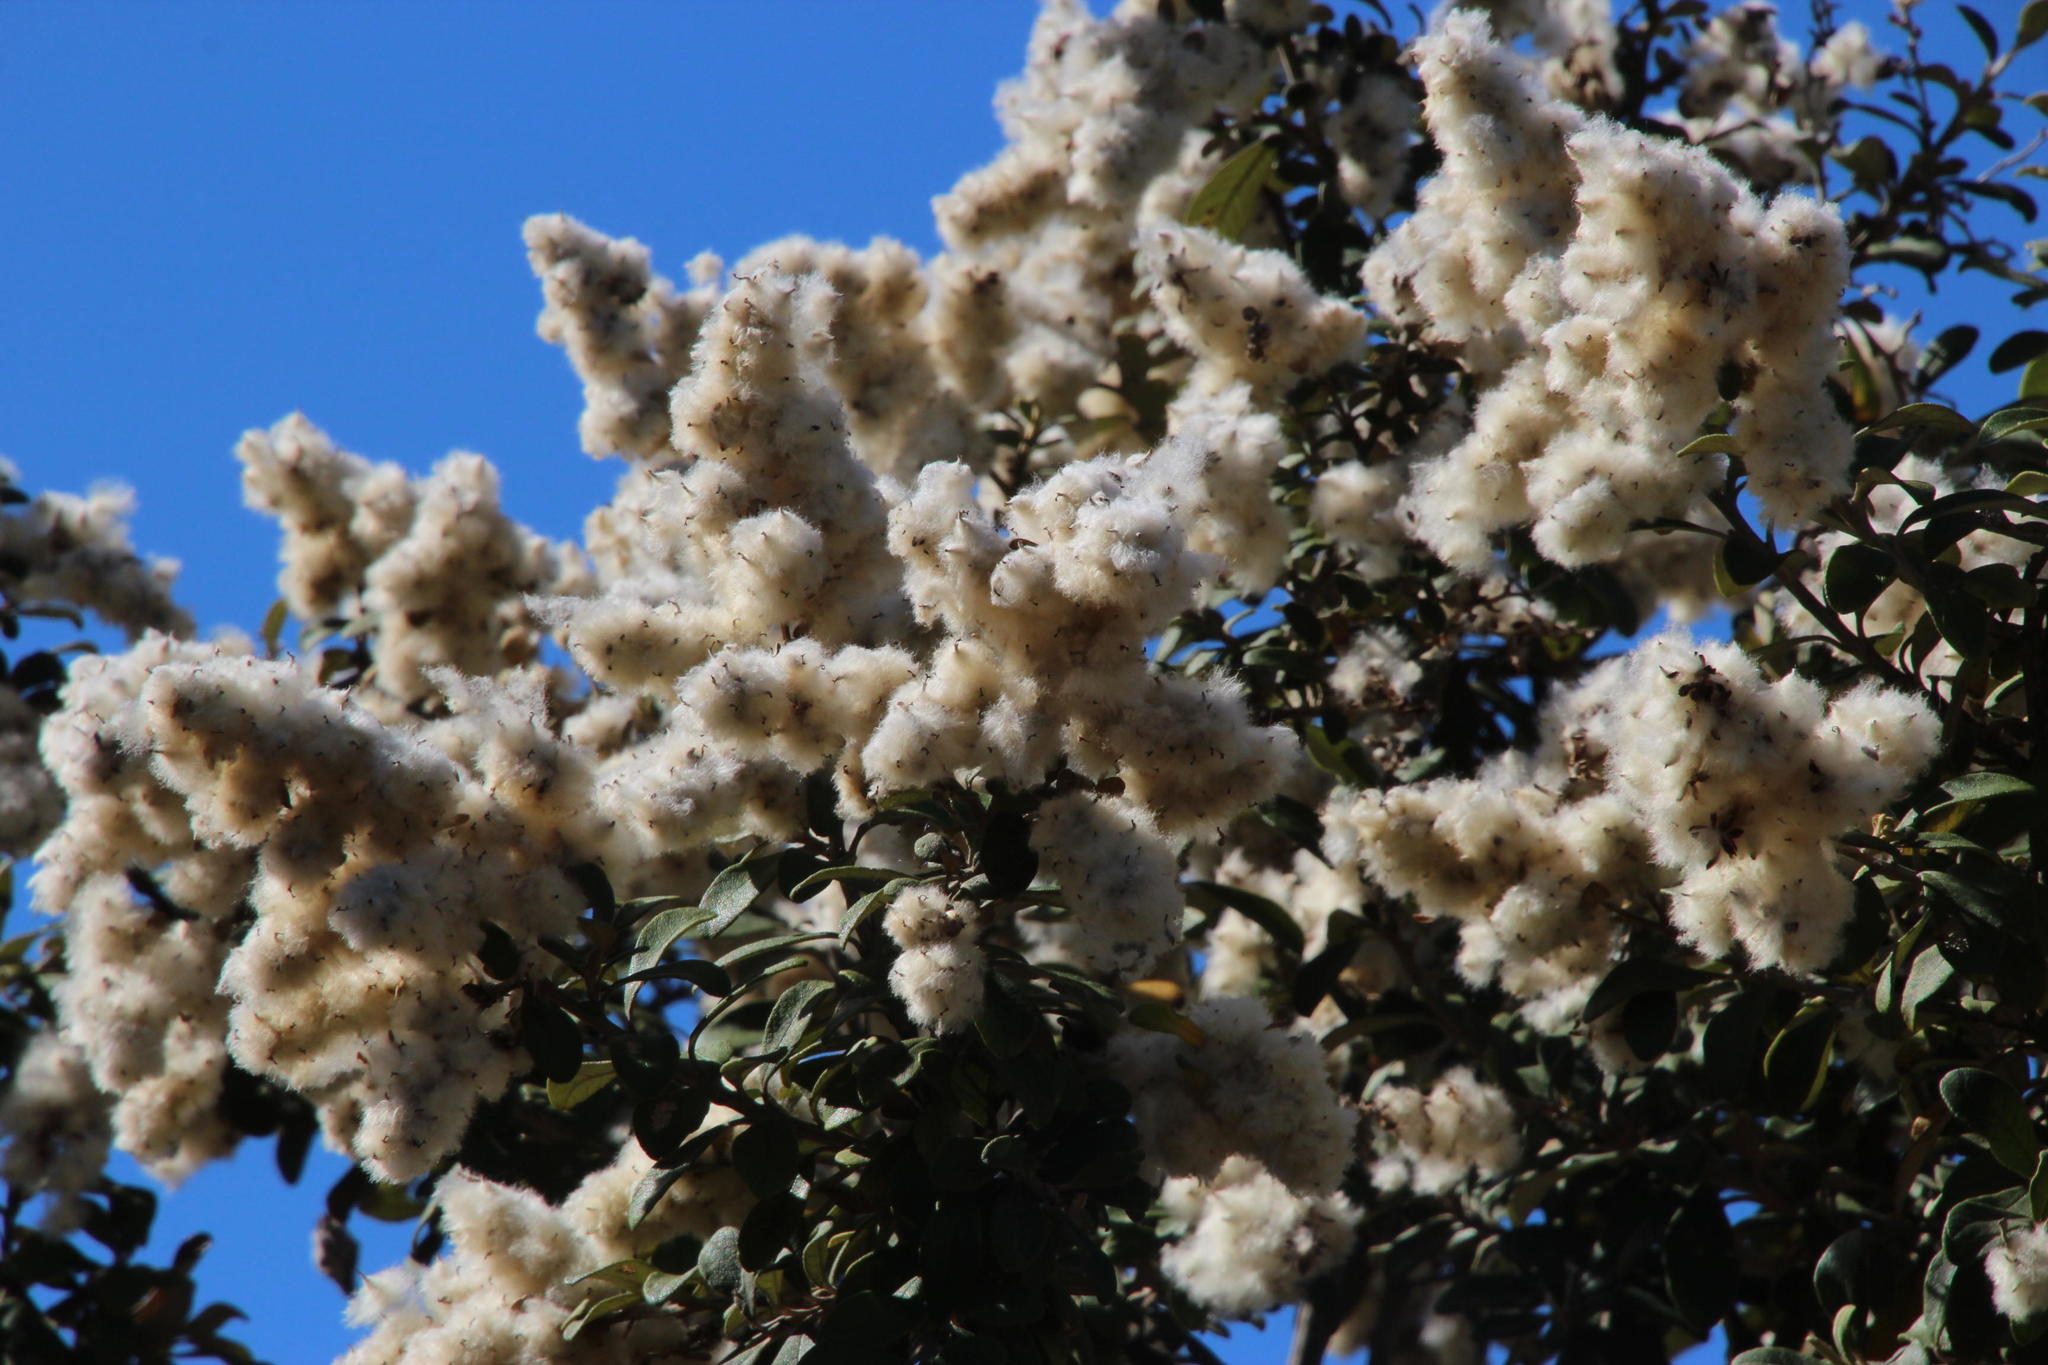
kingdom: Plantae
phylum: Tracheophyta
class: Magnoliopsida
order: Asterales
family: Asteraceae
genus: Tarchonanthus
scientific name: Tarchonanthus littoralis
